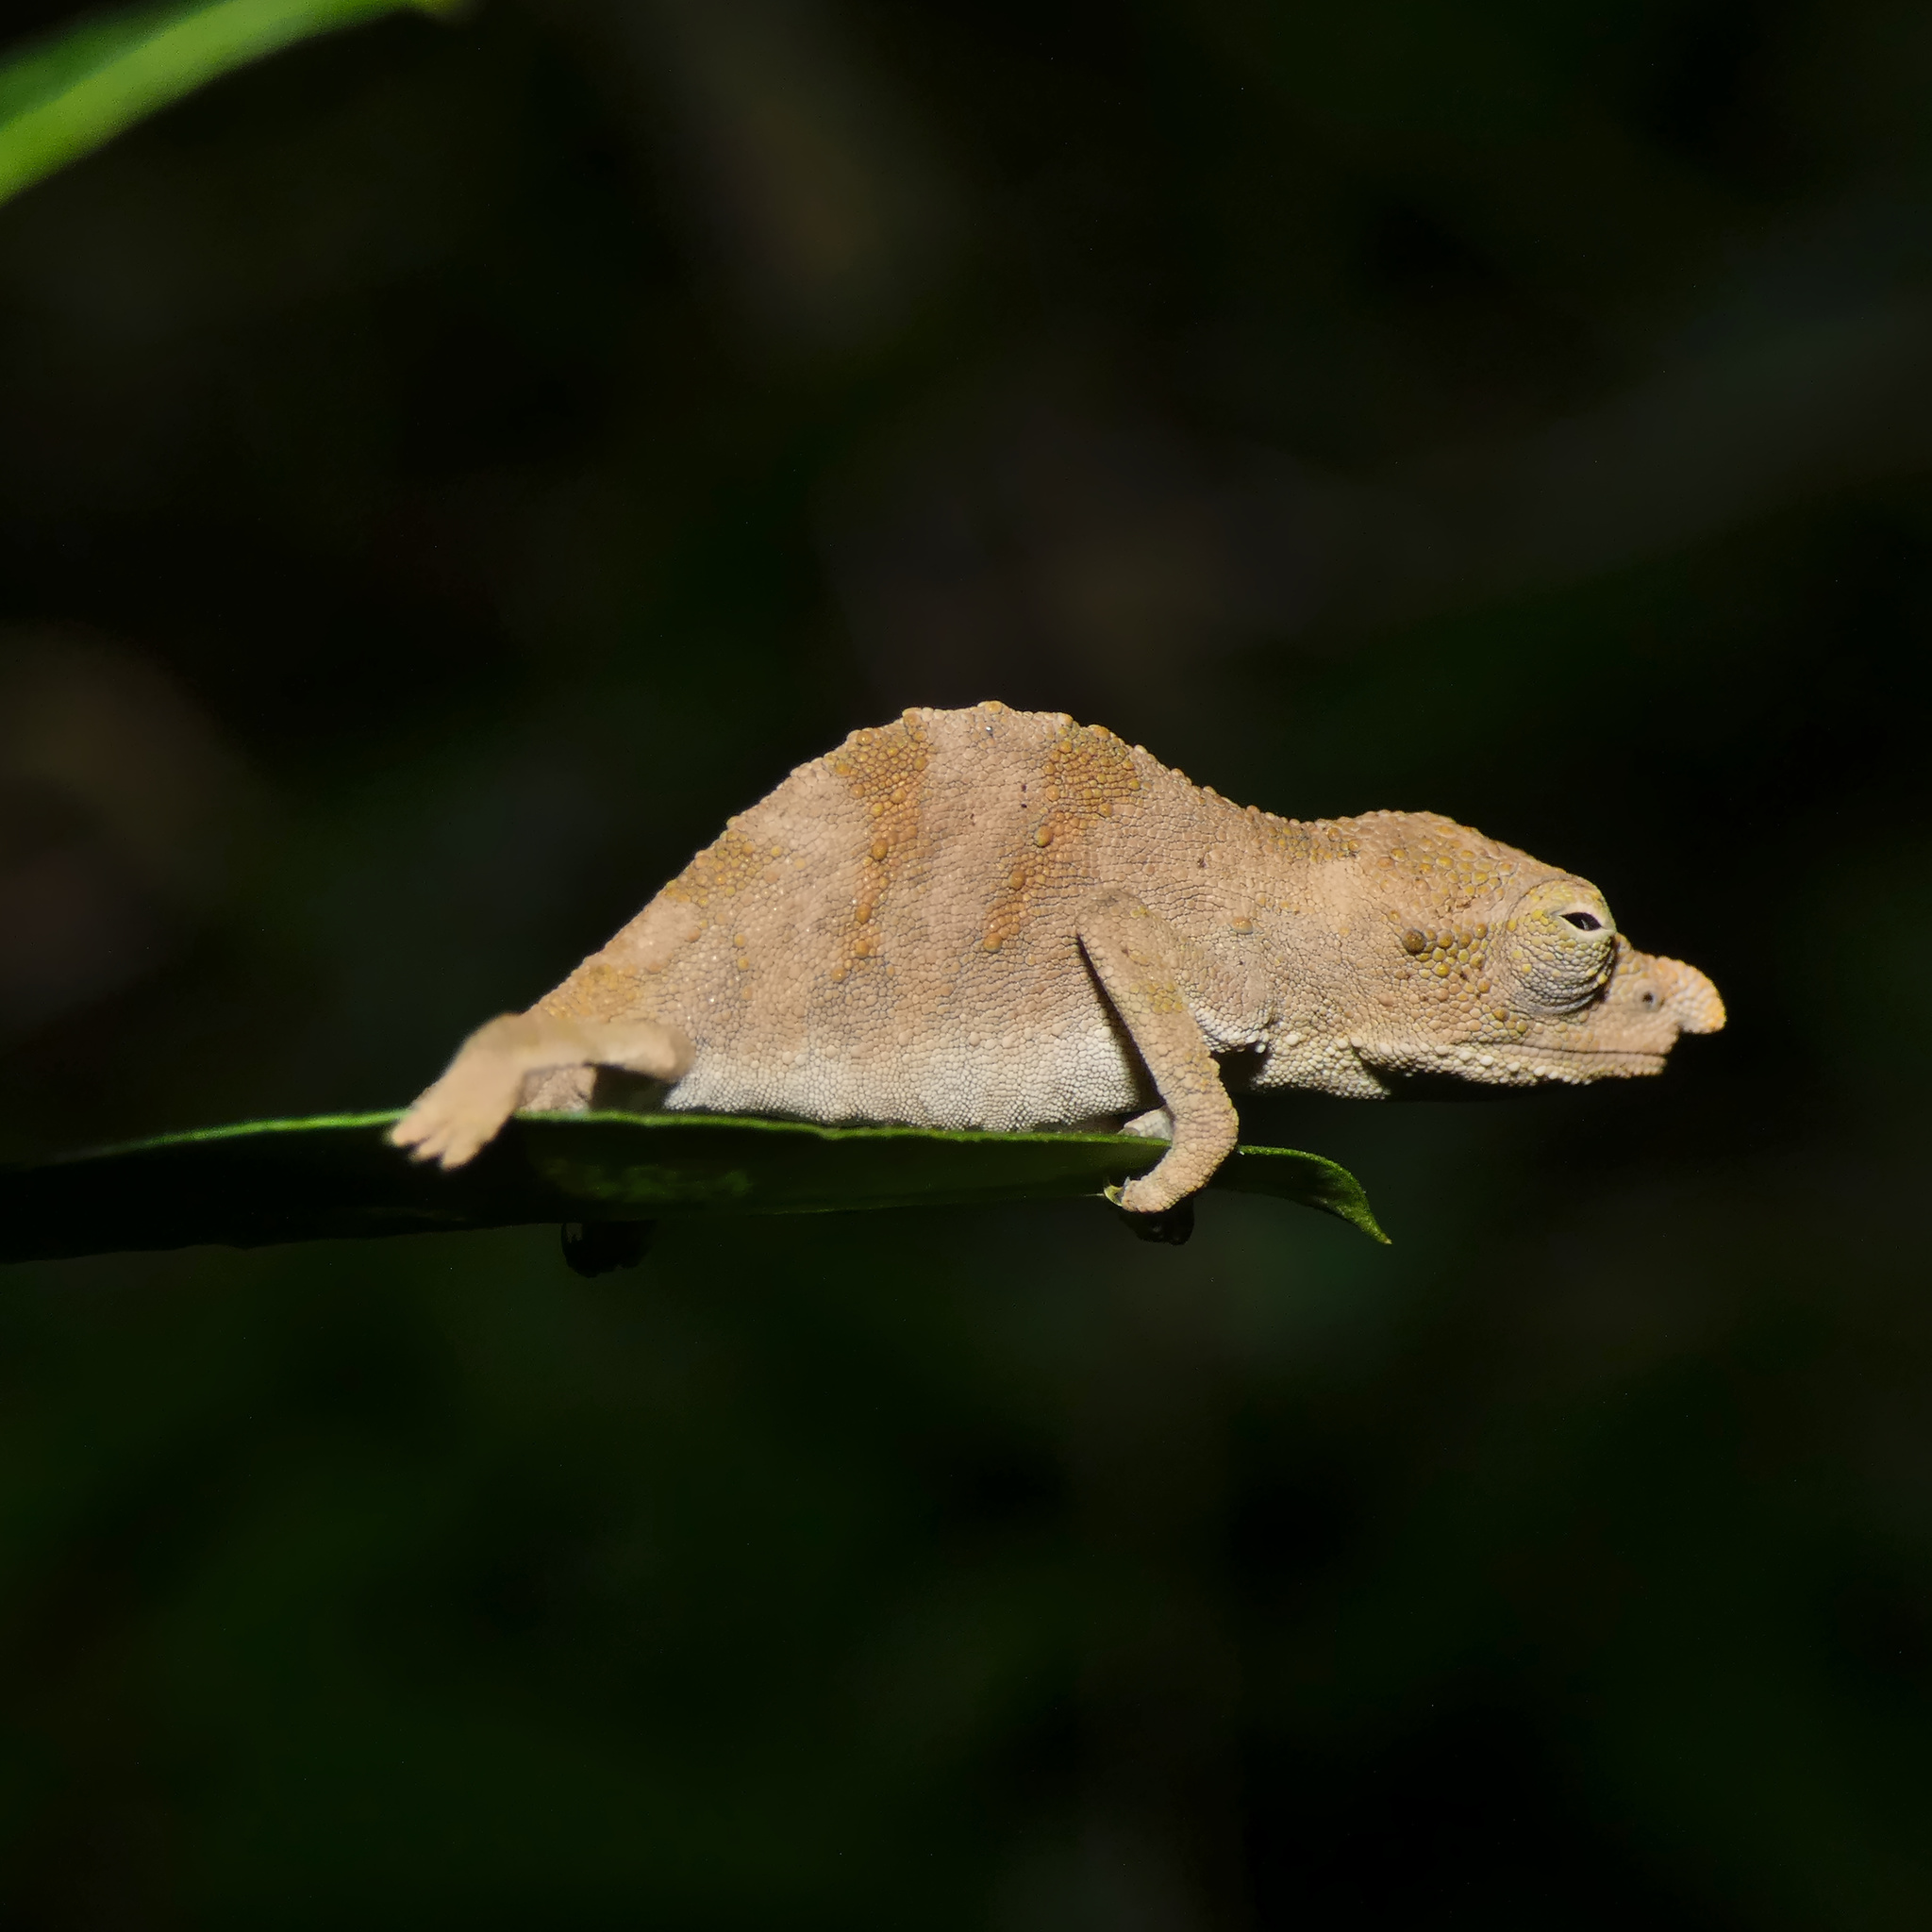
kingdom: Animalia
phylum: Chordata
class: Squamata
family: Chamaeleonidae
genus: Rhampholeon
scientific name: Rhampholeon marshalli
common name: Marshall's african leaf chameleon
